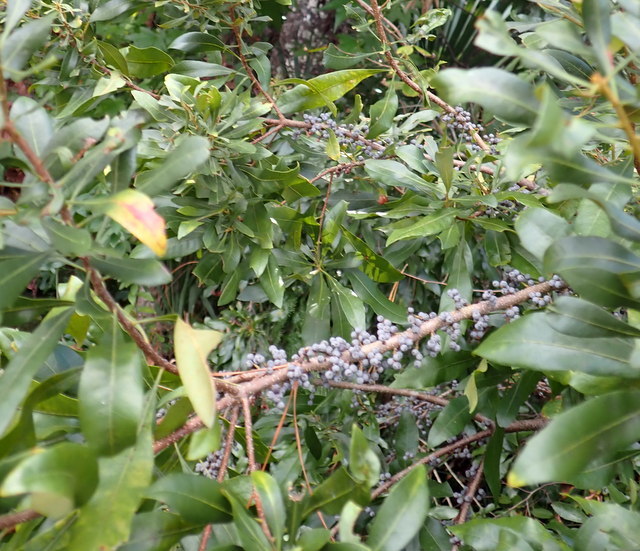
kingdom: Plantae
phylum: Tracheophyta
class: Magnoliopsida
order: Fagales
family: Myricaceae
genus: Morella
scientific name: Morella cerifera
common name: Wax myrtle
